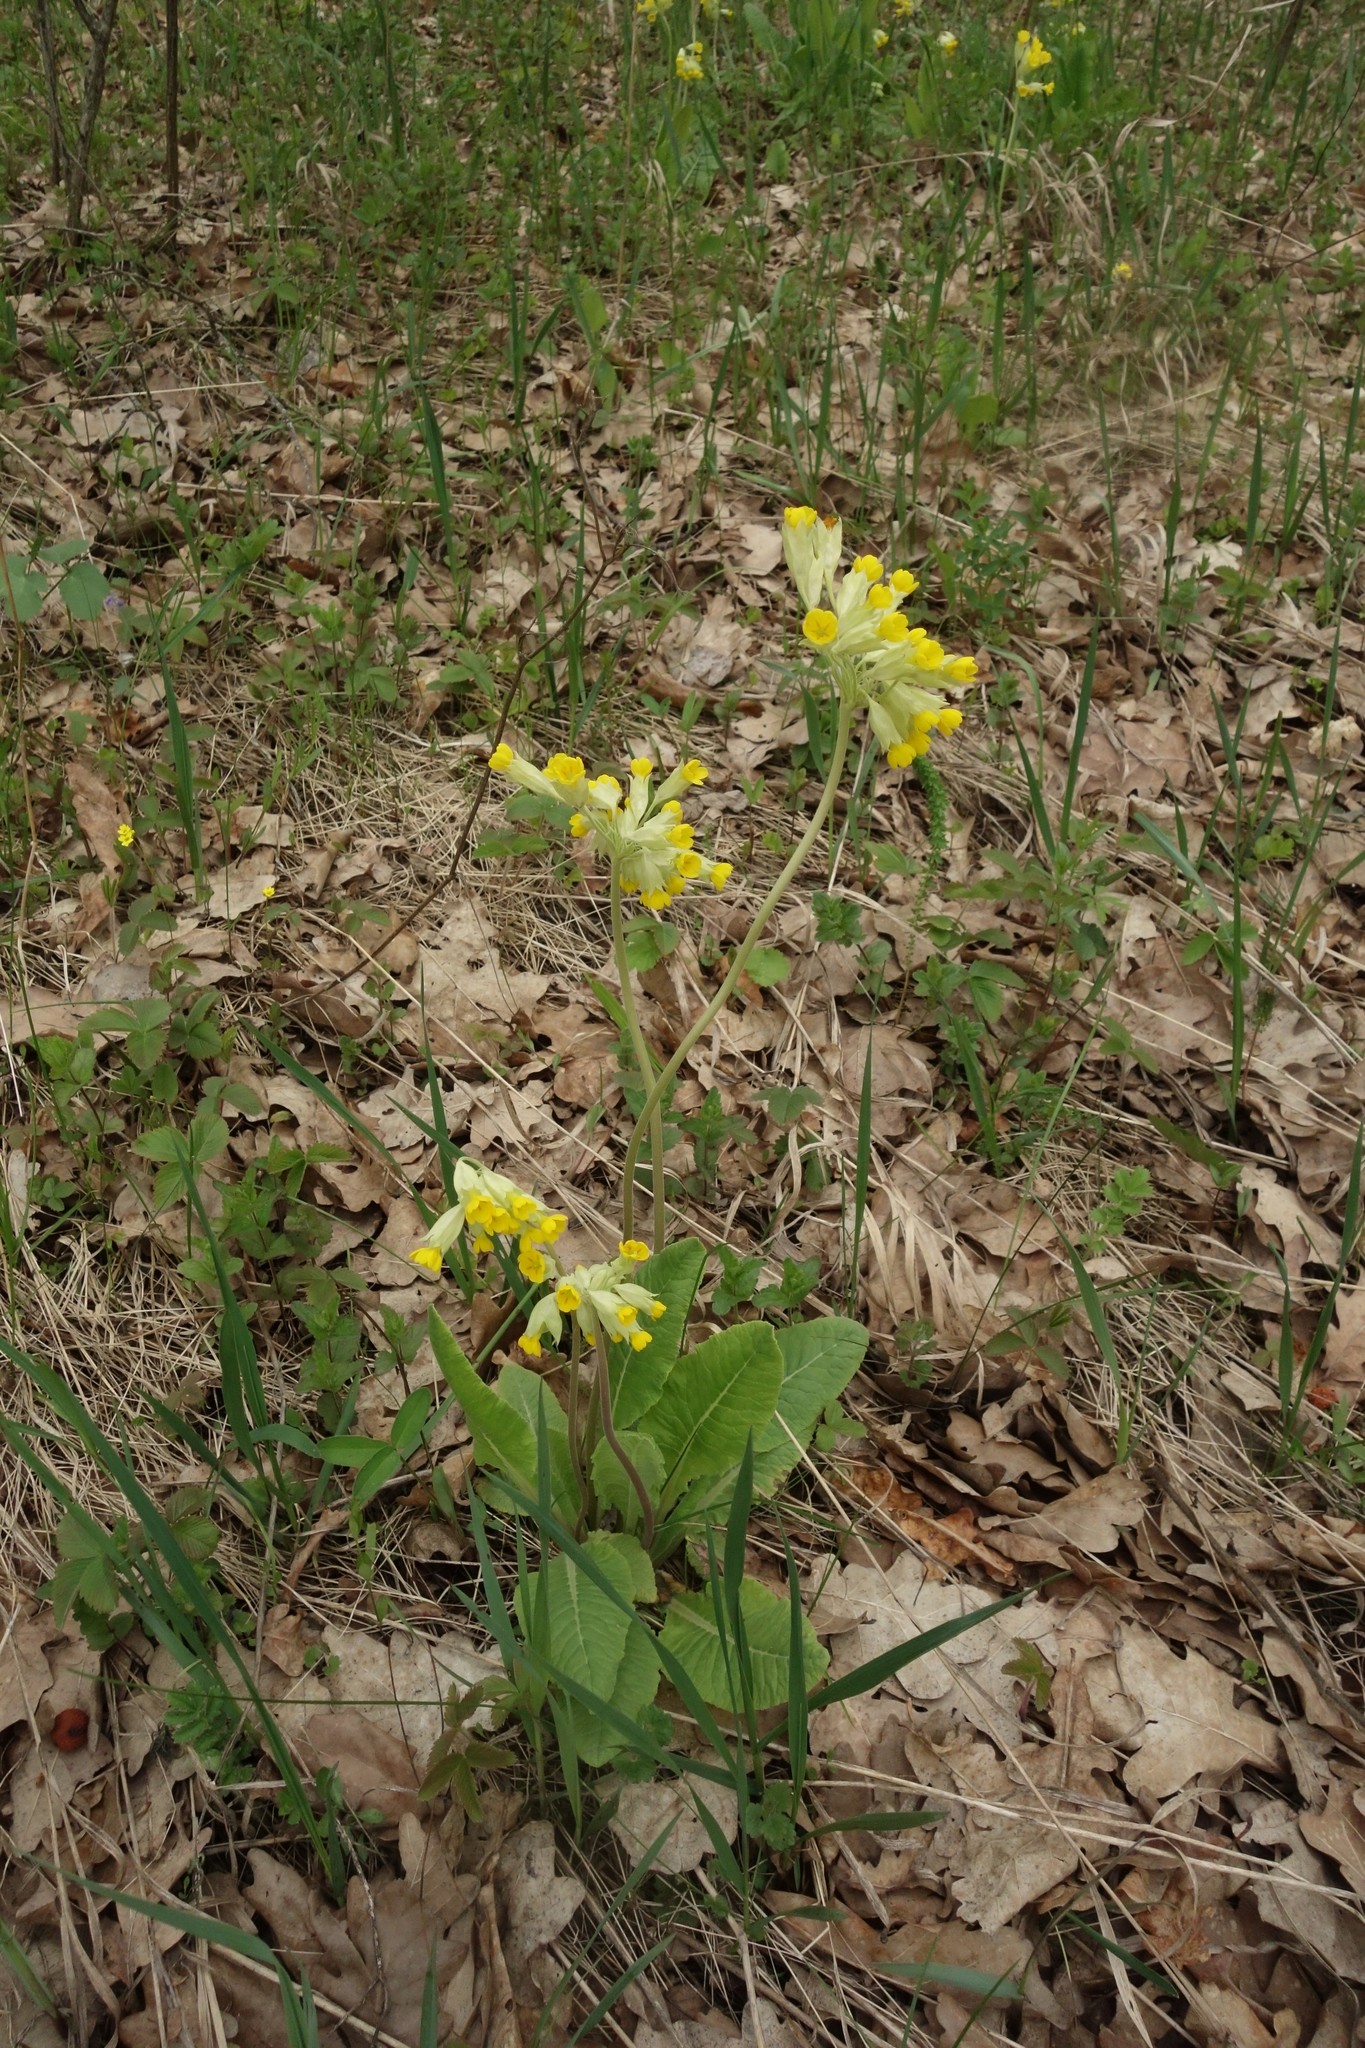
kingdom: Plantae
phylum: Tracheophyta
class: Magnoliopsida
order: Ericales
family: Primulaceae
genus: Primula
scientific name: Primula veris
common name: Cowslip
